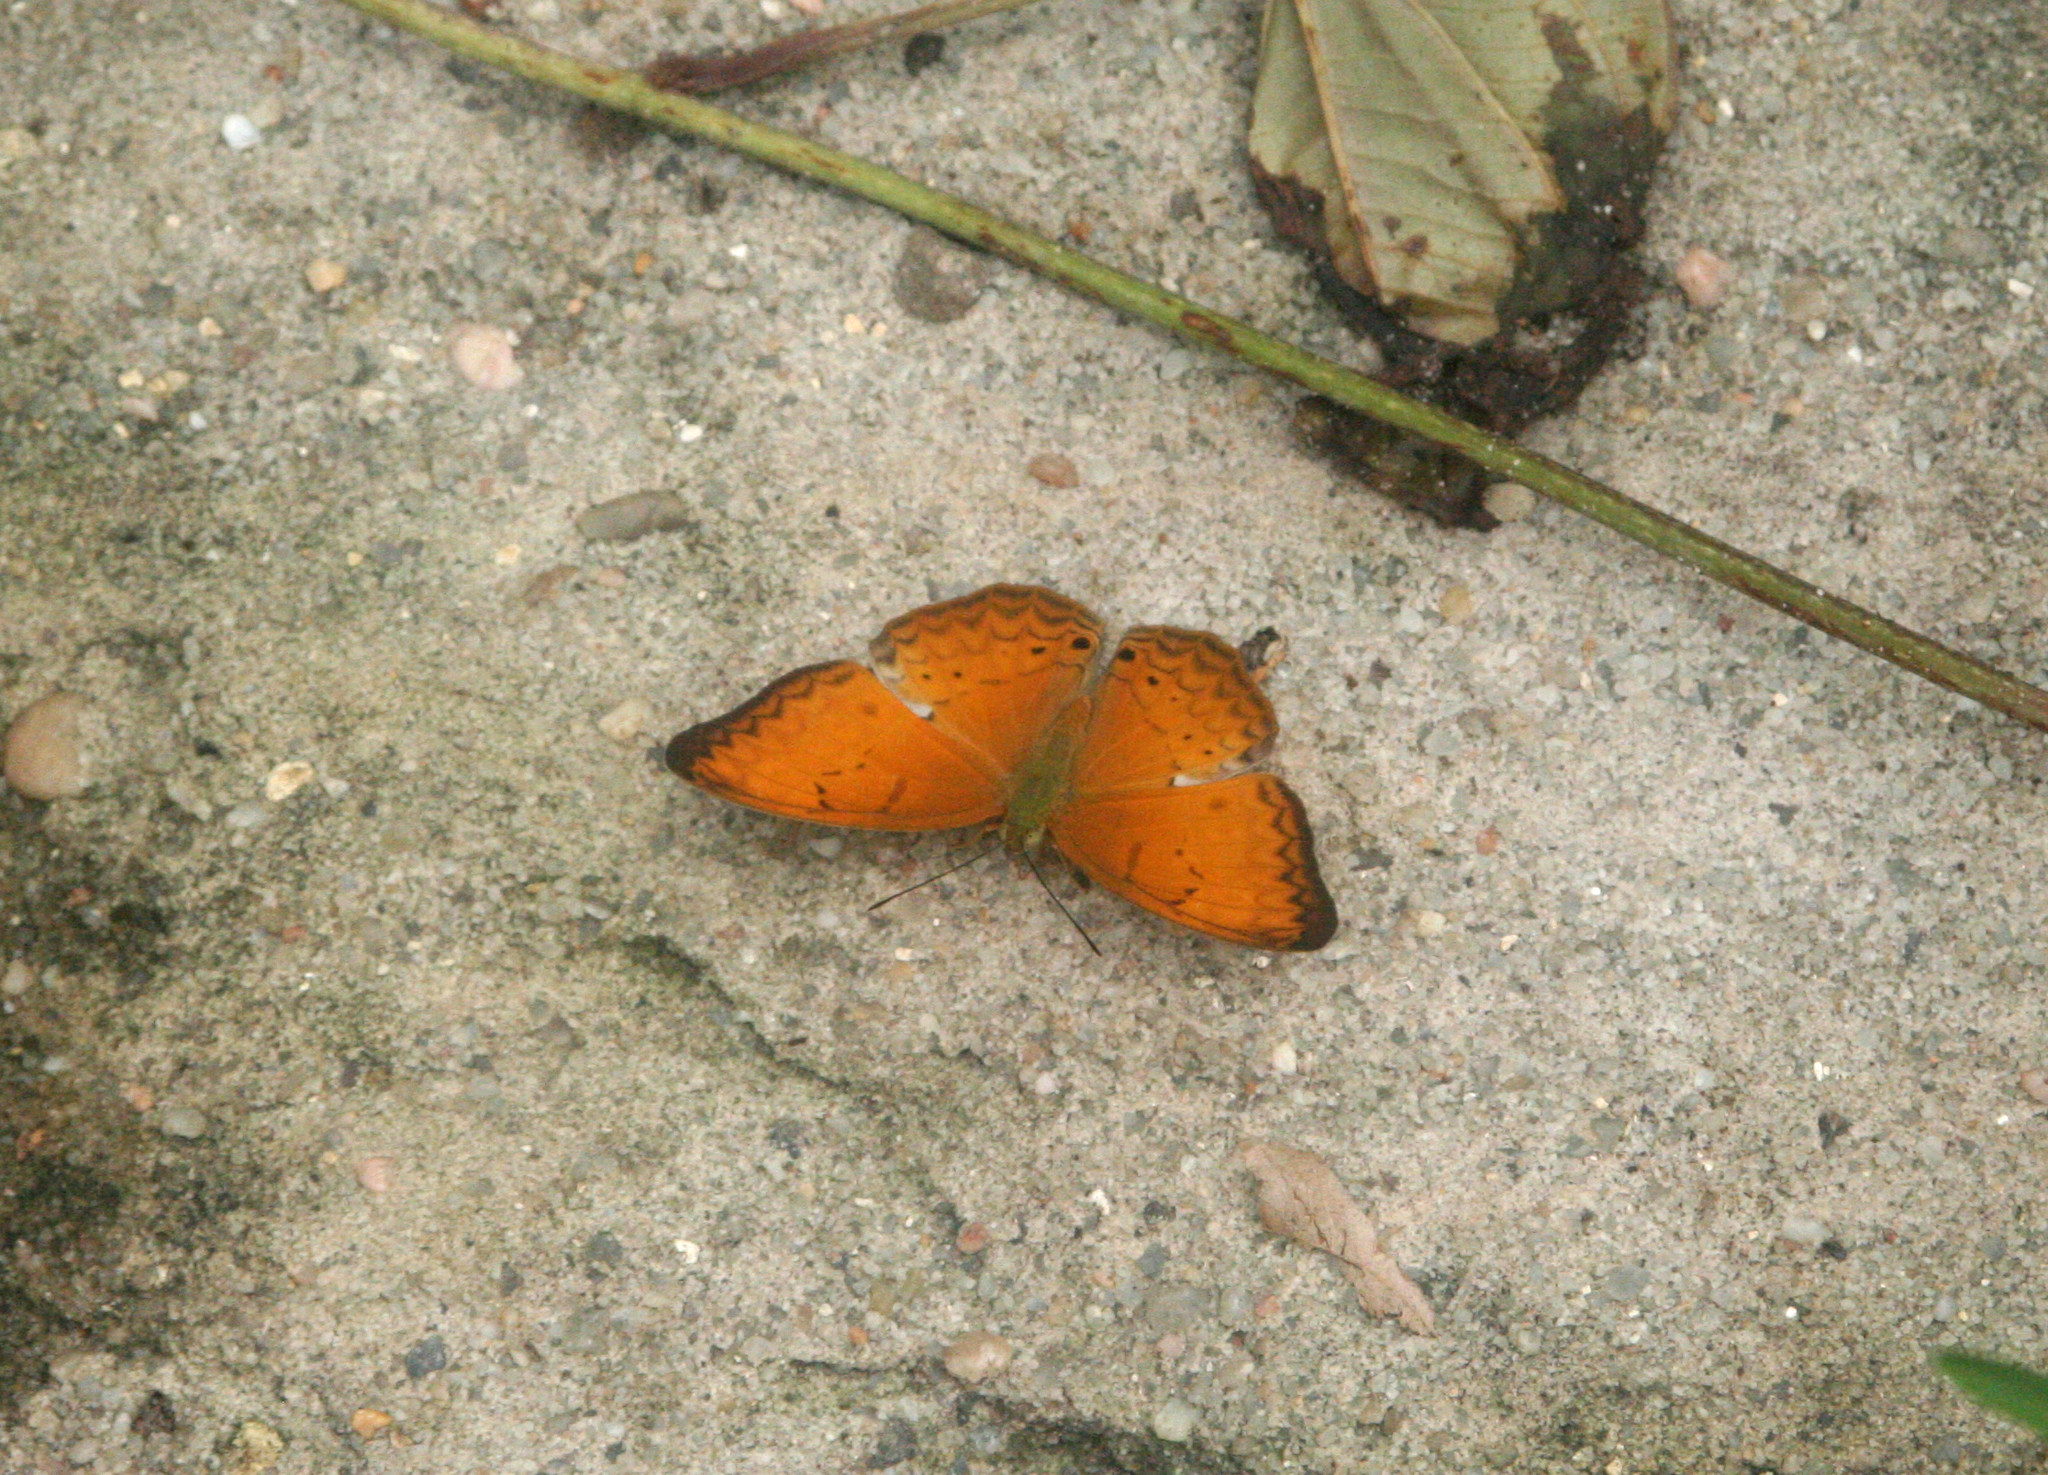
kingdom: Animalia
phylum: Arthropoda
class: Insecta
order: Lepidoptera
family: Nymphalidae
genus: Cirrochroa
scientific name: Cirrochroa tyche
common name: Common yeoman
